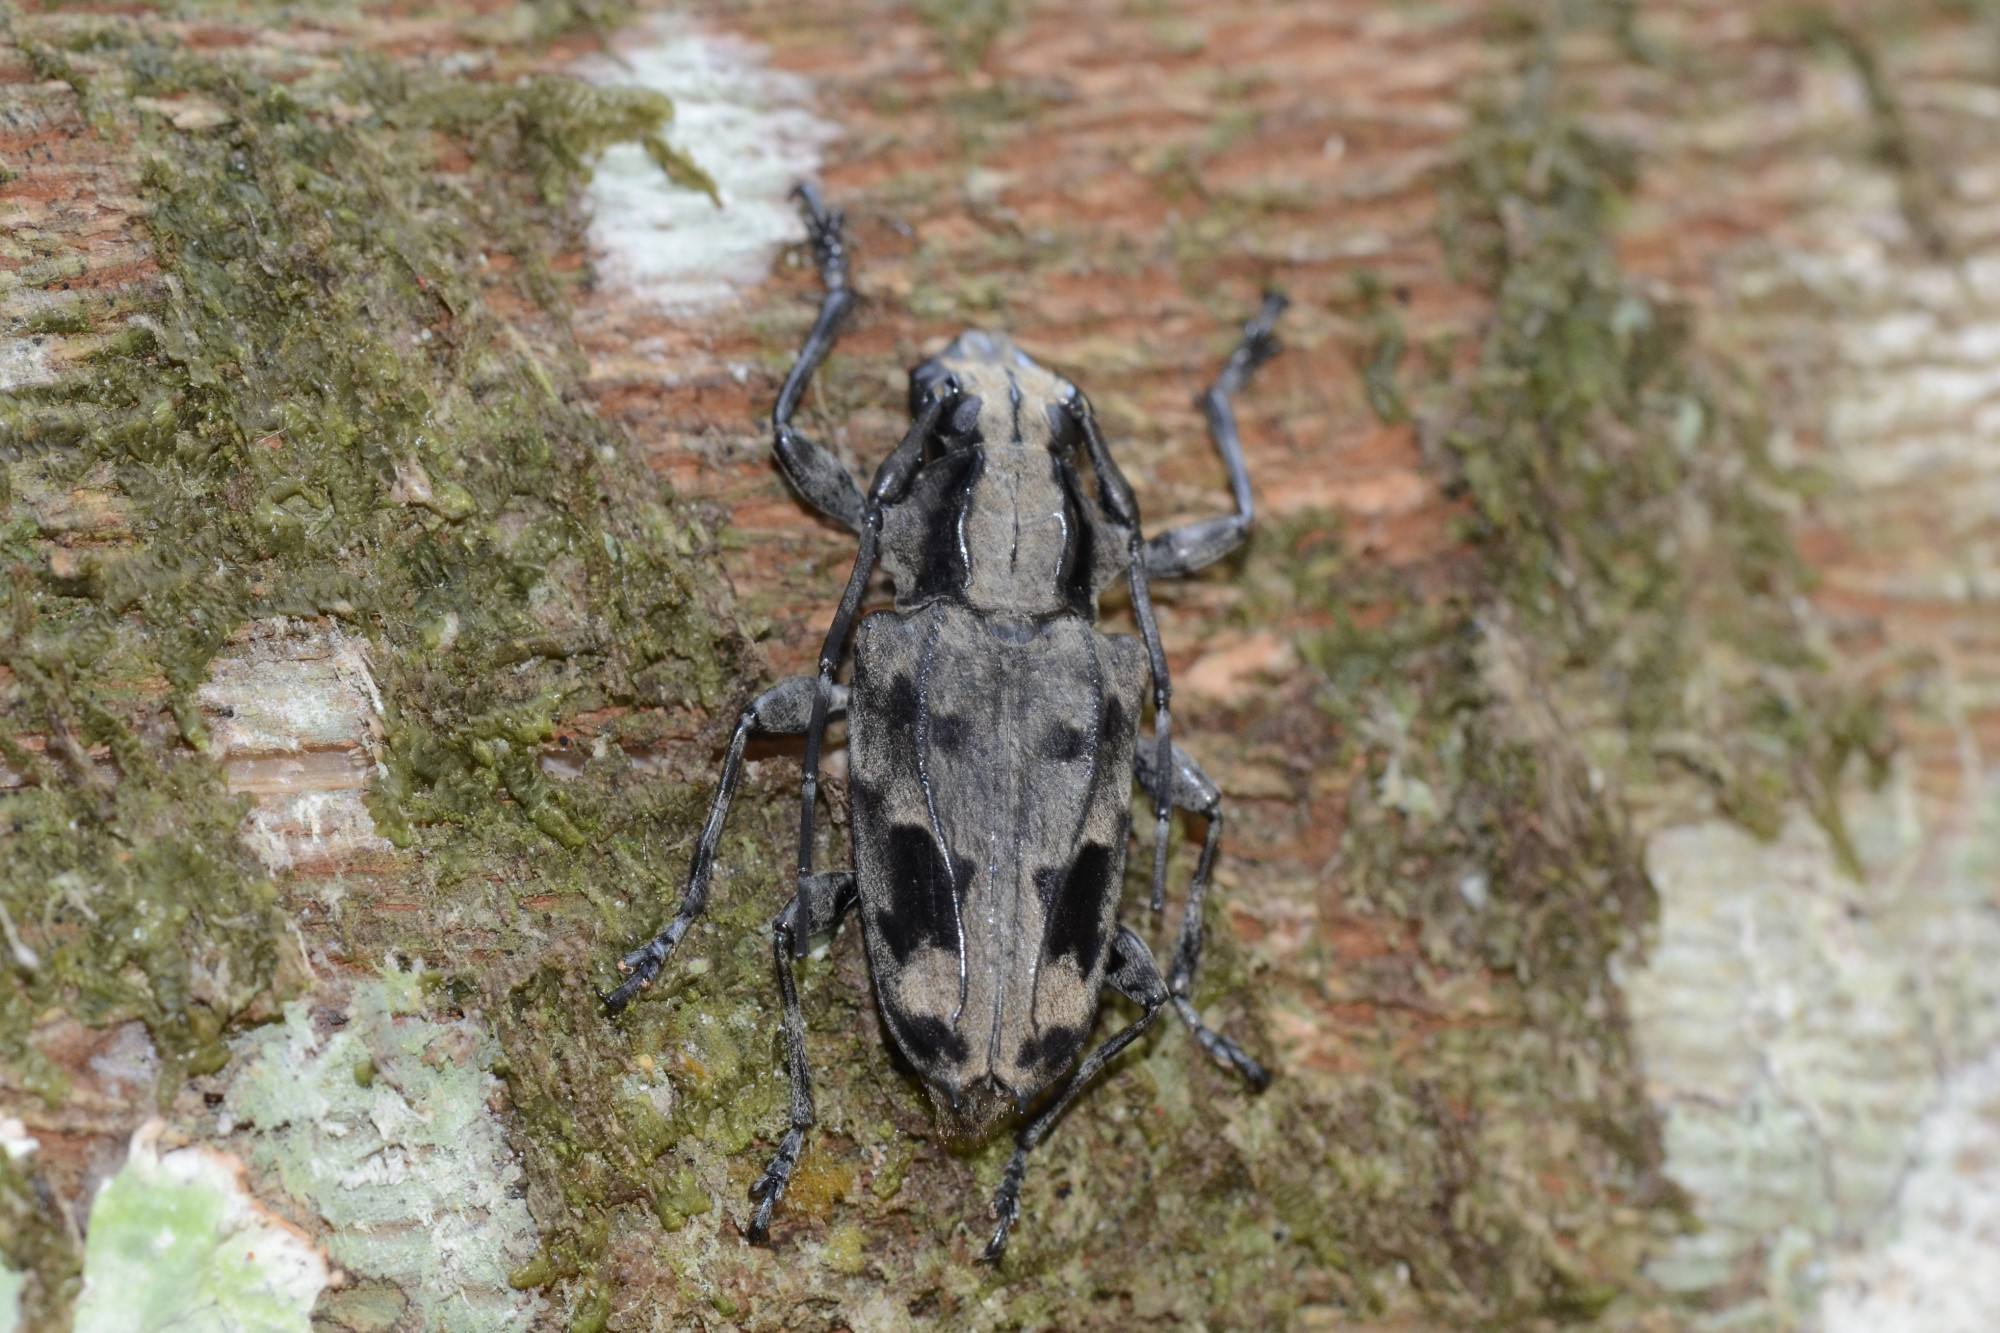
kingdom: Animalia
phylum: Arthropoda
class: Insecta
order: Coleoptera
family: Cerambycidae
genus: Steirastoma
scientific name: Steirastoma coenosum
